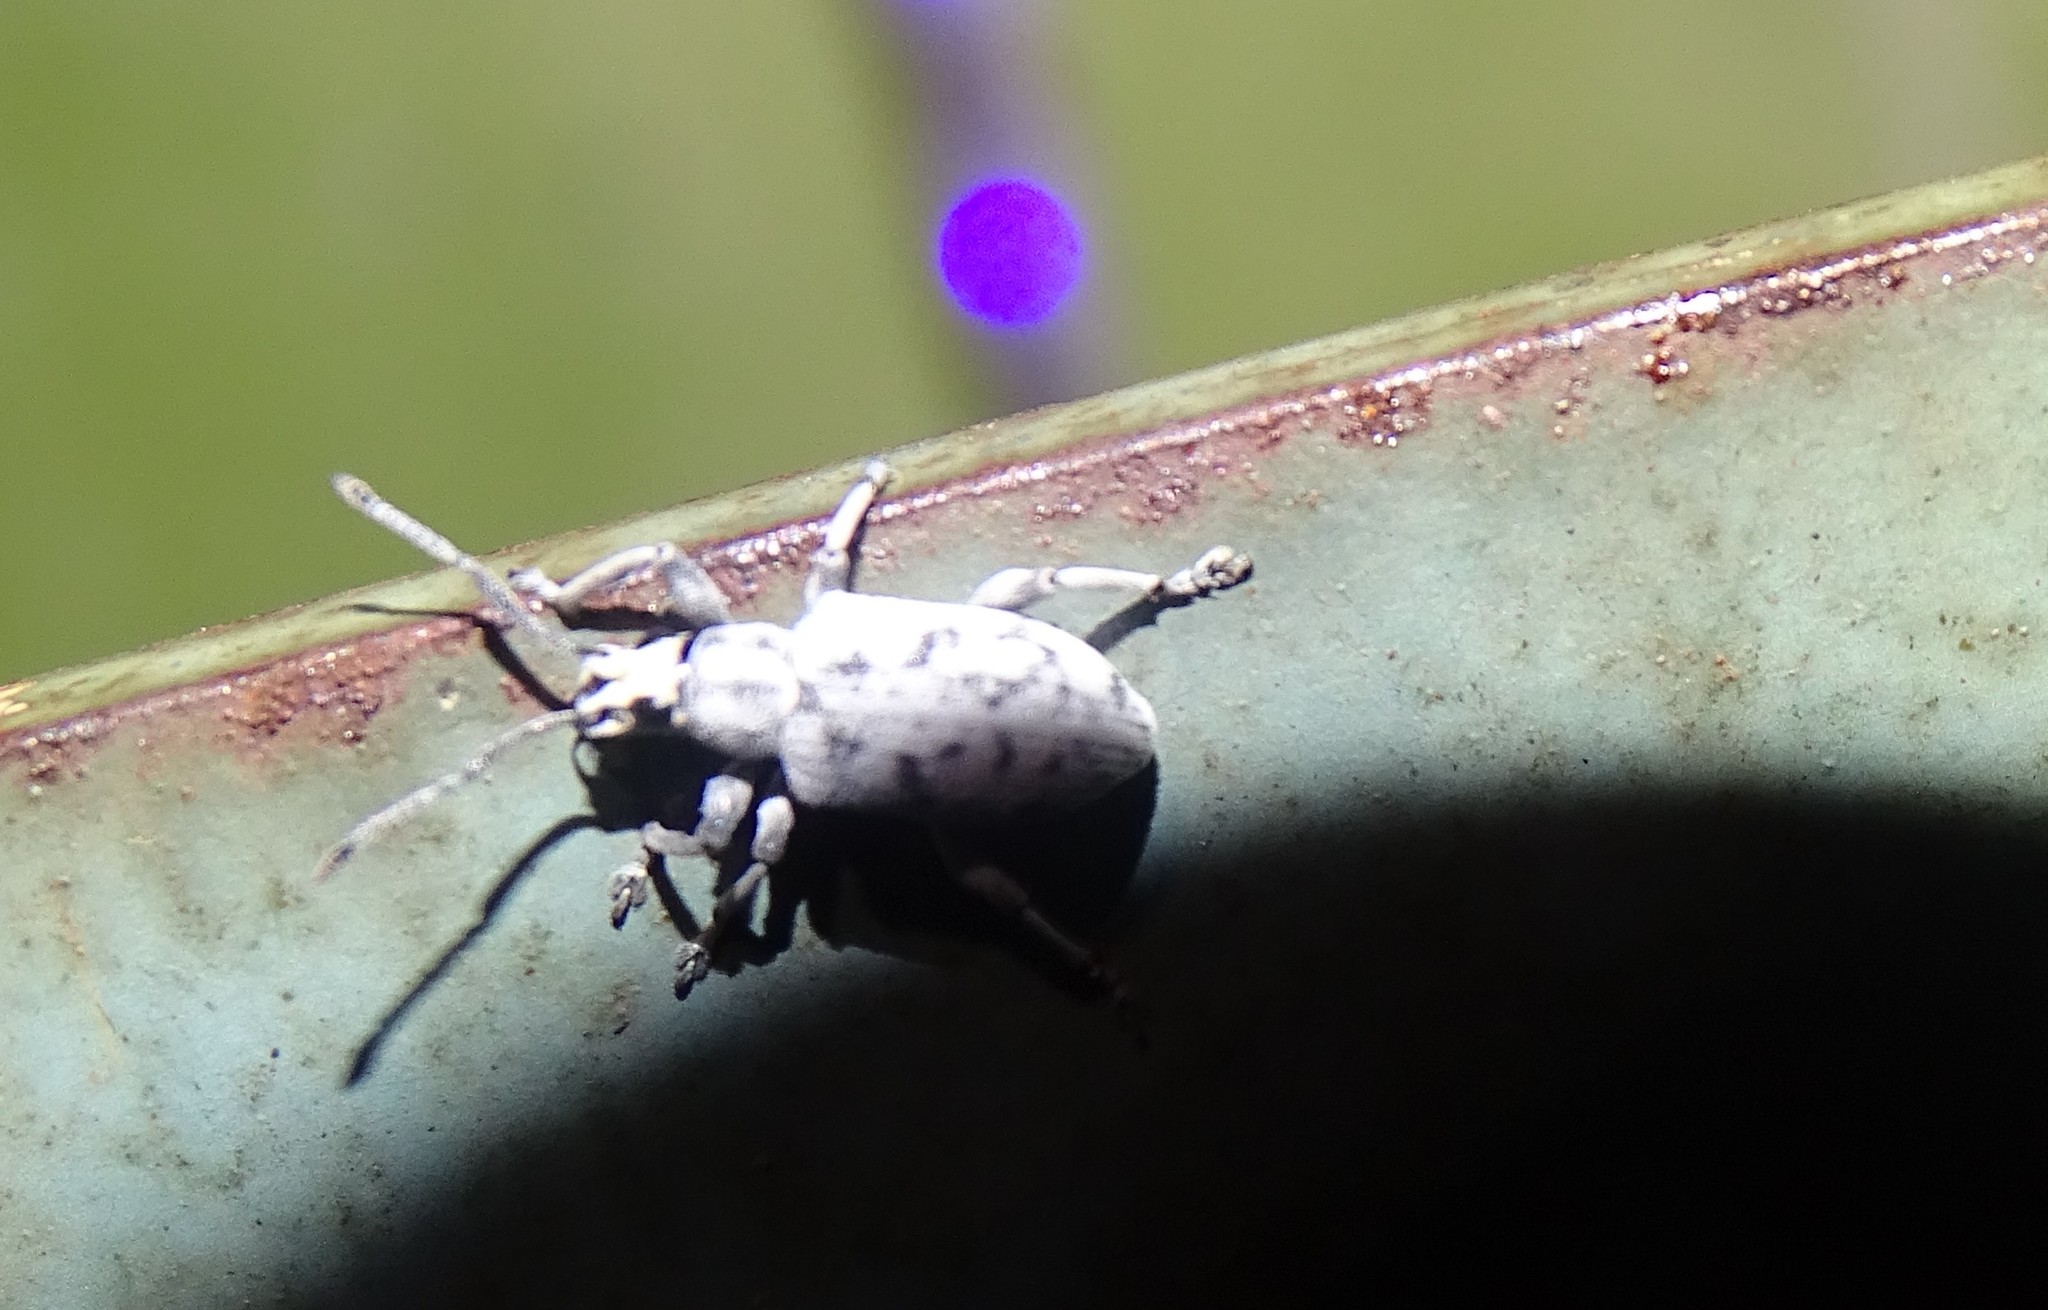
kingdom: Animalia
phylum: Arthropoda
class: Insecta
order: Coleoptera
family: Curculionidae
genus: Myllocerus
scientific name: Myllocerus undecimpustulatus
